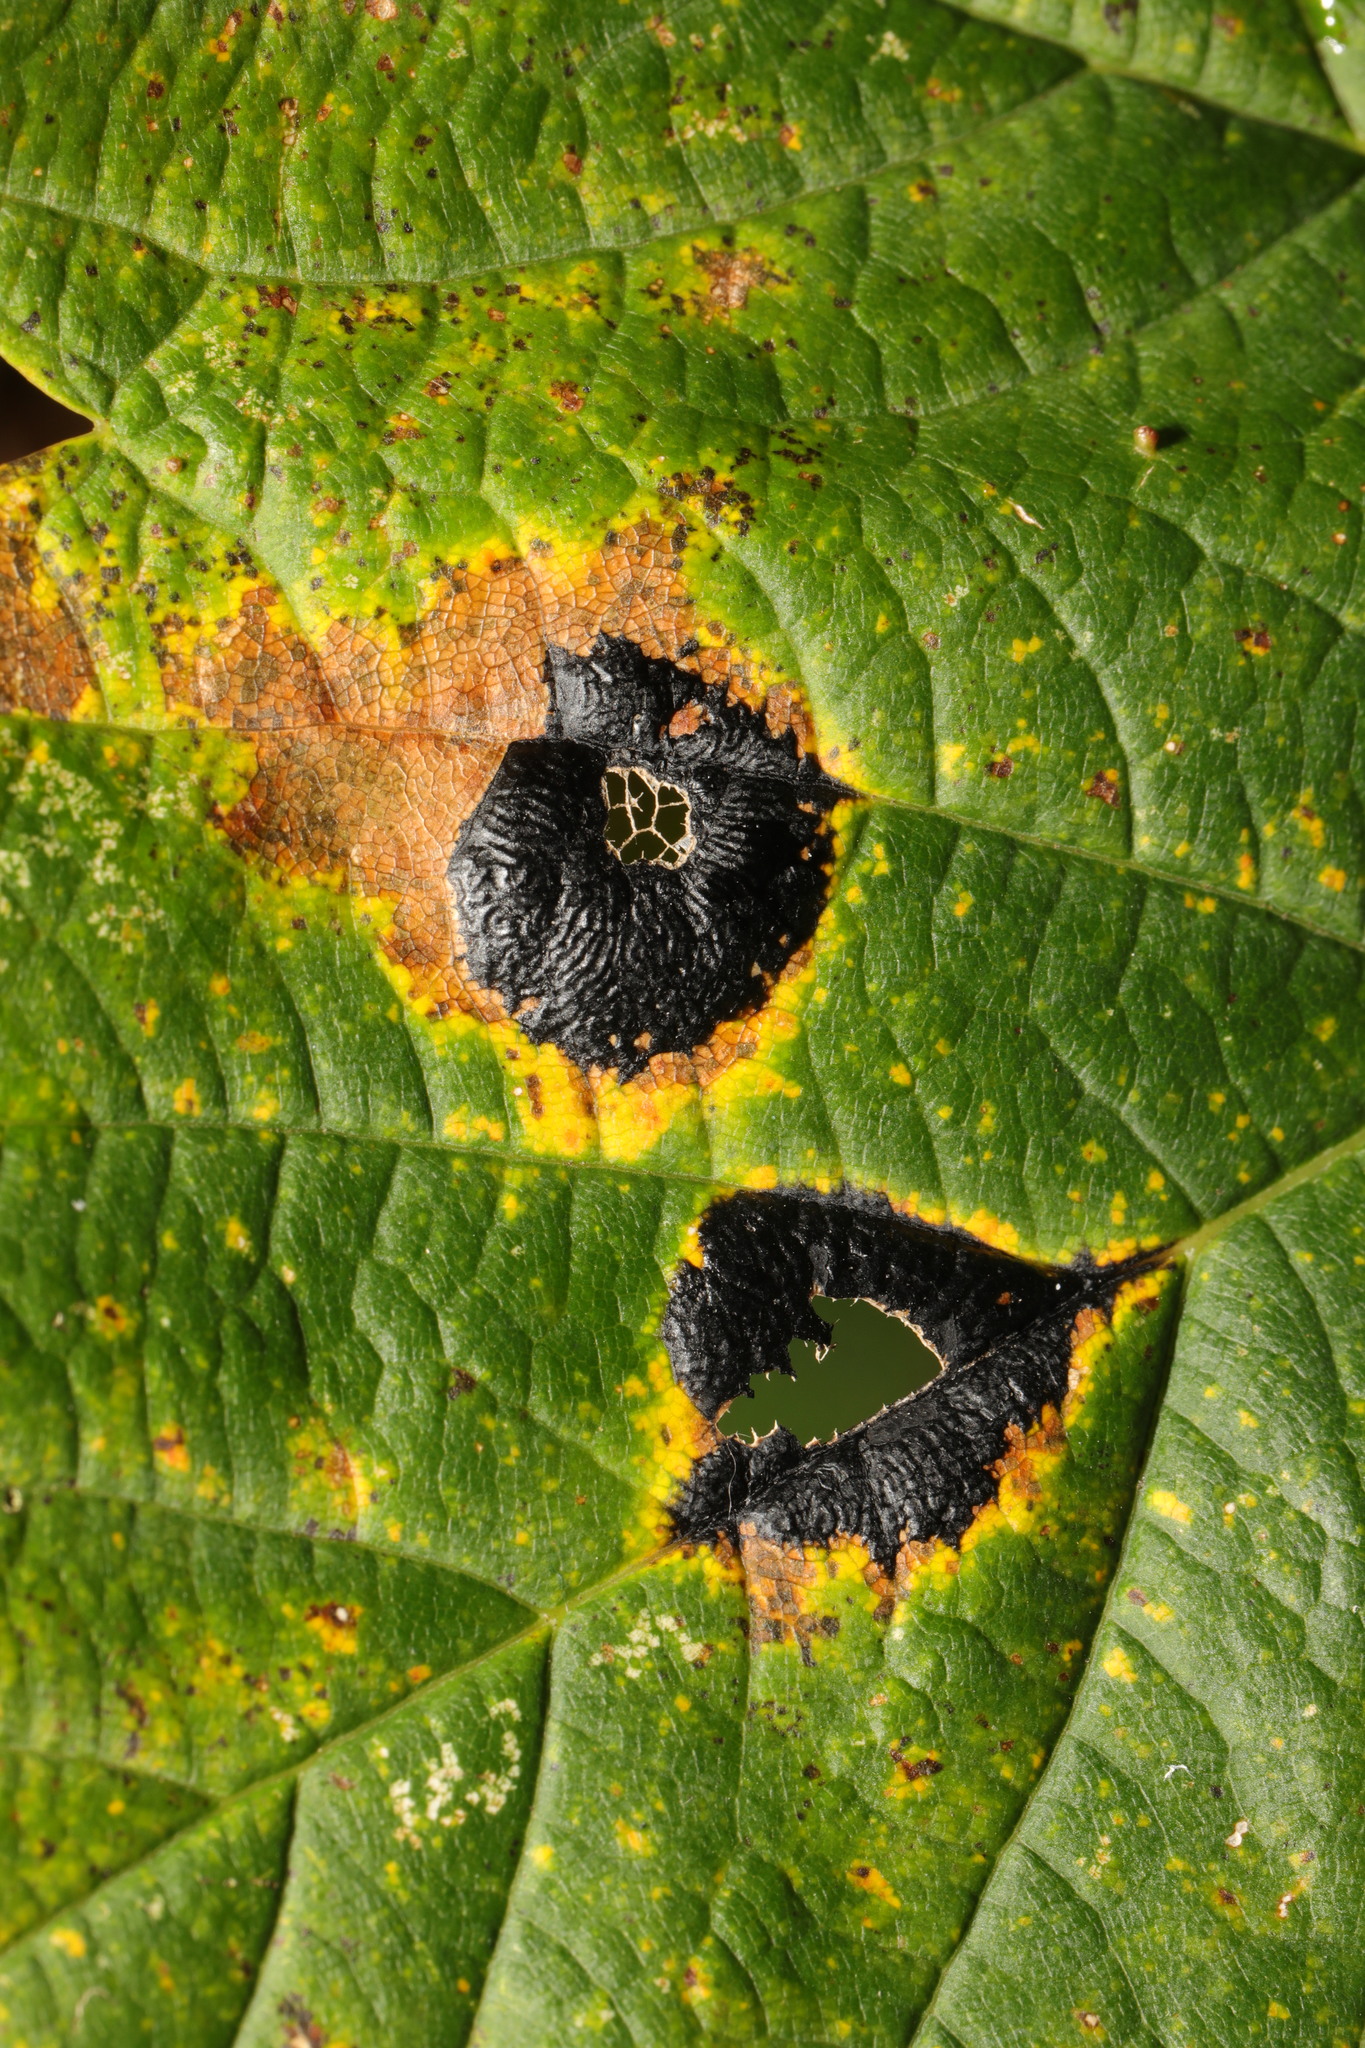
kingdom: Fungi
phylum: Ascomycota
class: Leotiomycetes
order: Rhytismatales
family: Rhytismataceae
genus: Rhytisma
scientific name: Rhytisma acerinum
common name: European tar spot
